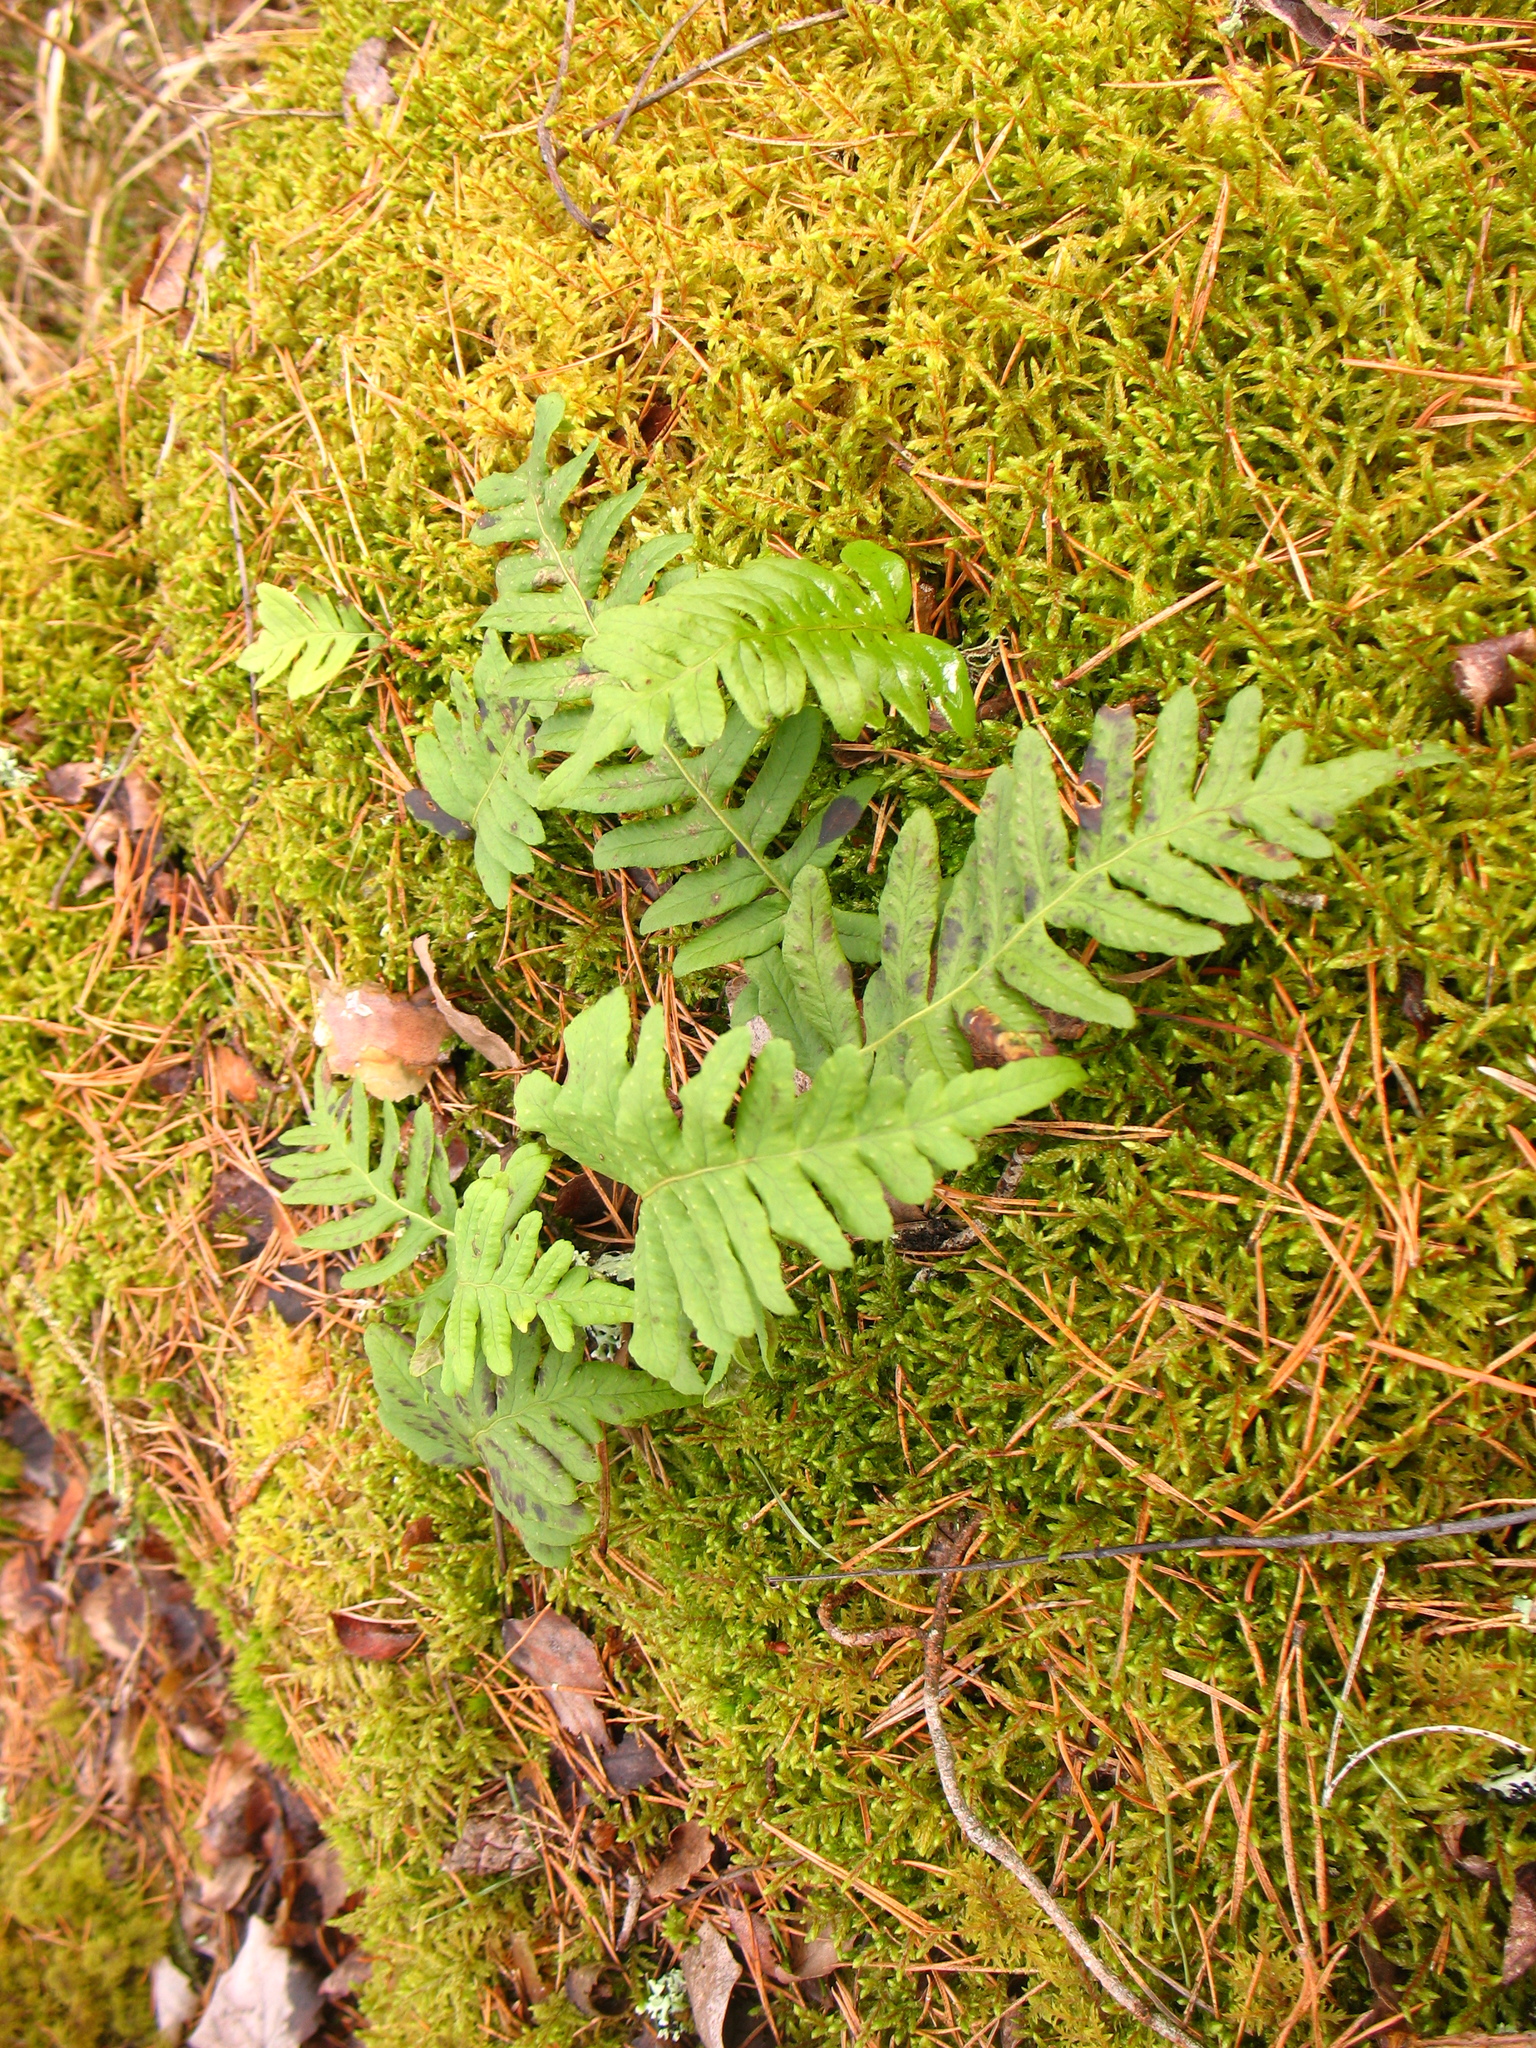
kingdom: Plantae
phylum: Tracheophyta
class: Polypodiopsida
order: Polypodiales
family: Polypodiaceae
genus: Polypodium
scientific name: Polypodium vulgare
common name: Common polypody
